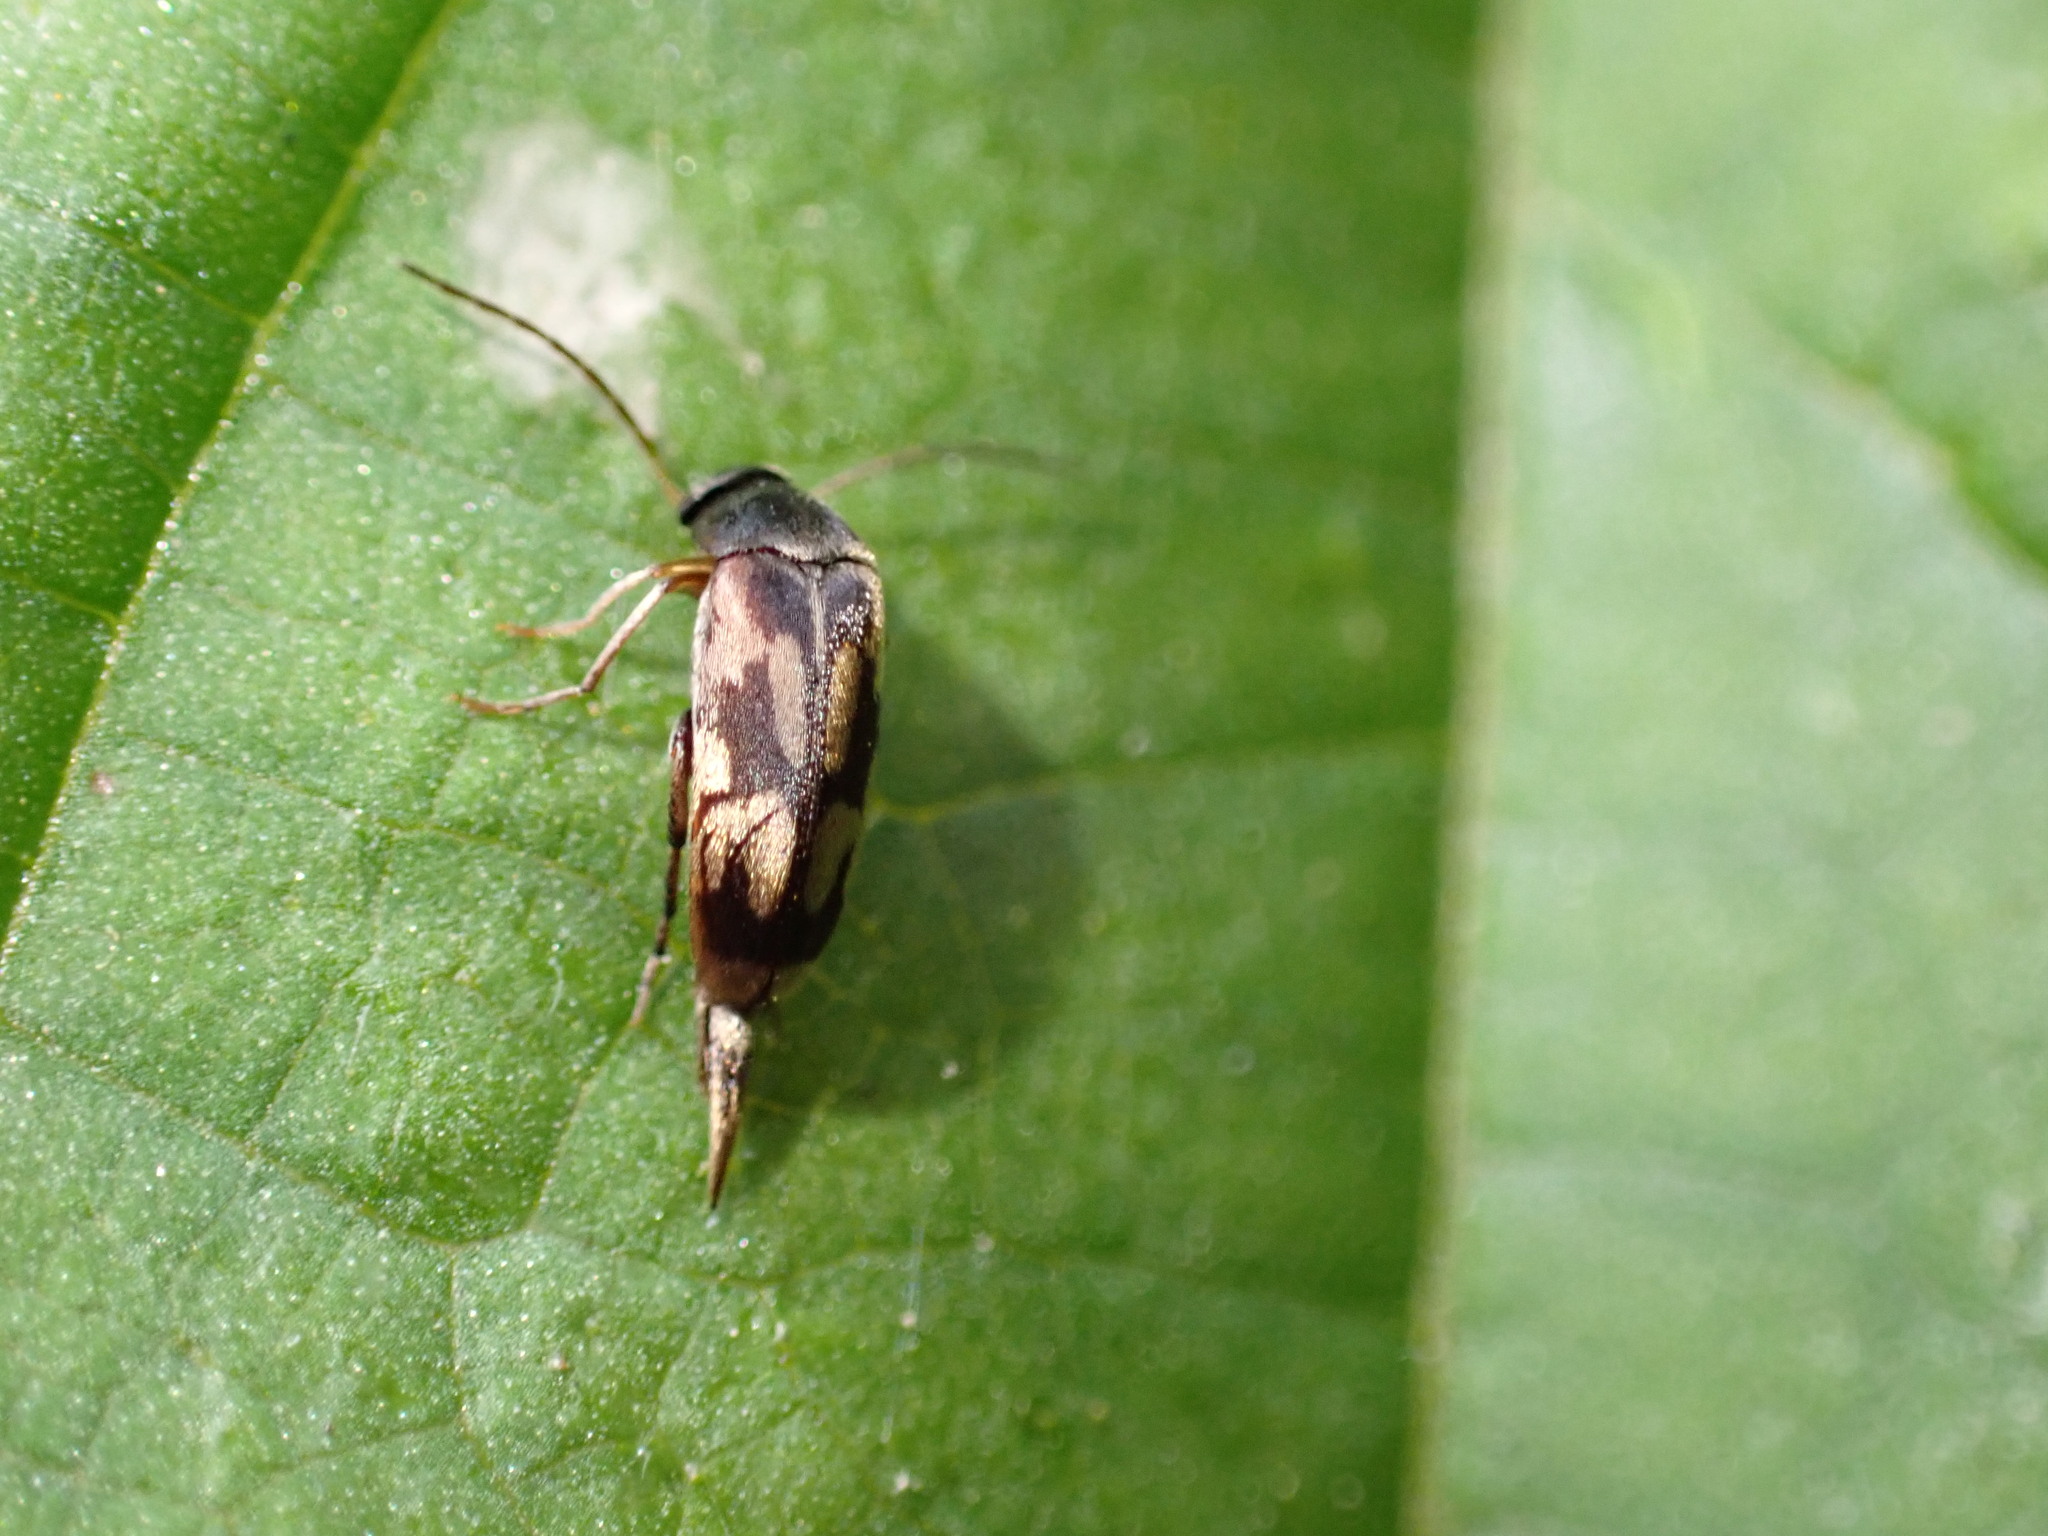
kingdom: Animalia
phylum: Arthropoda
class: Insecta
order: Coleoptera
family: Mordellidae
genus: Falsomordellistena
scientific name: Falsomordellistena bihamata
